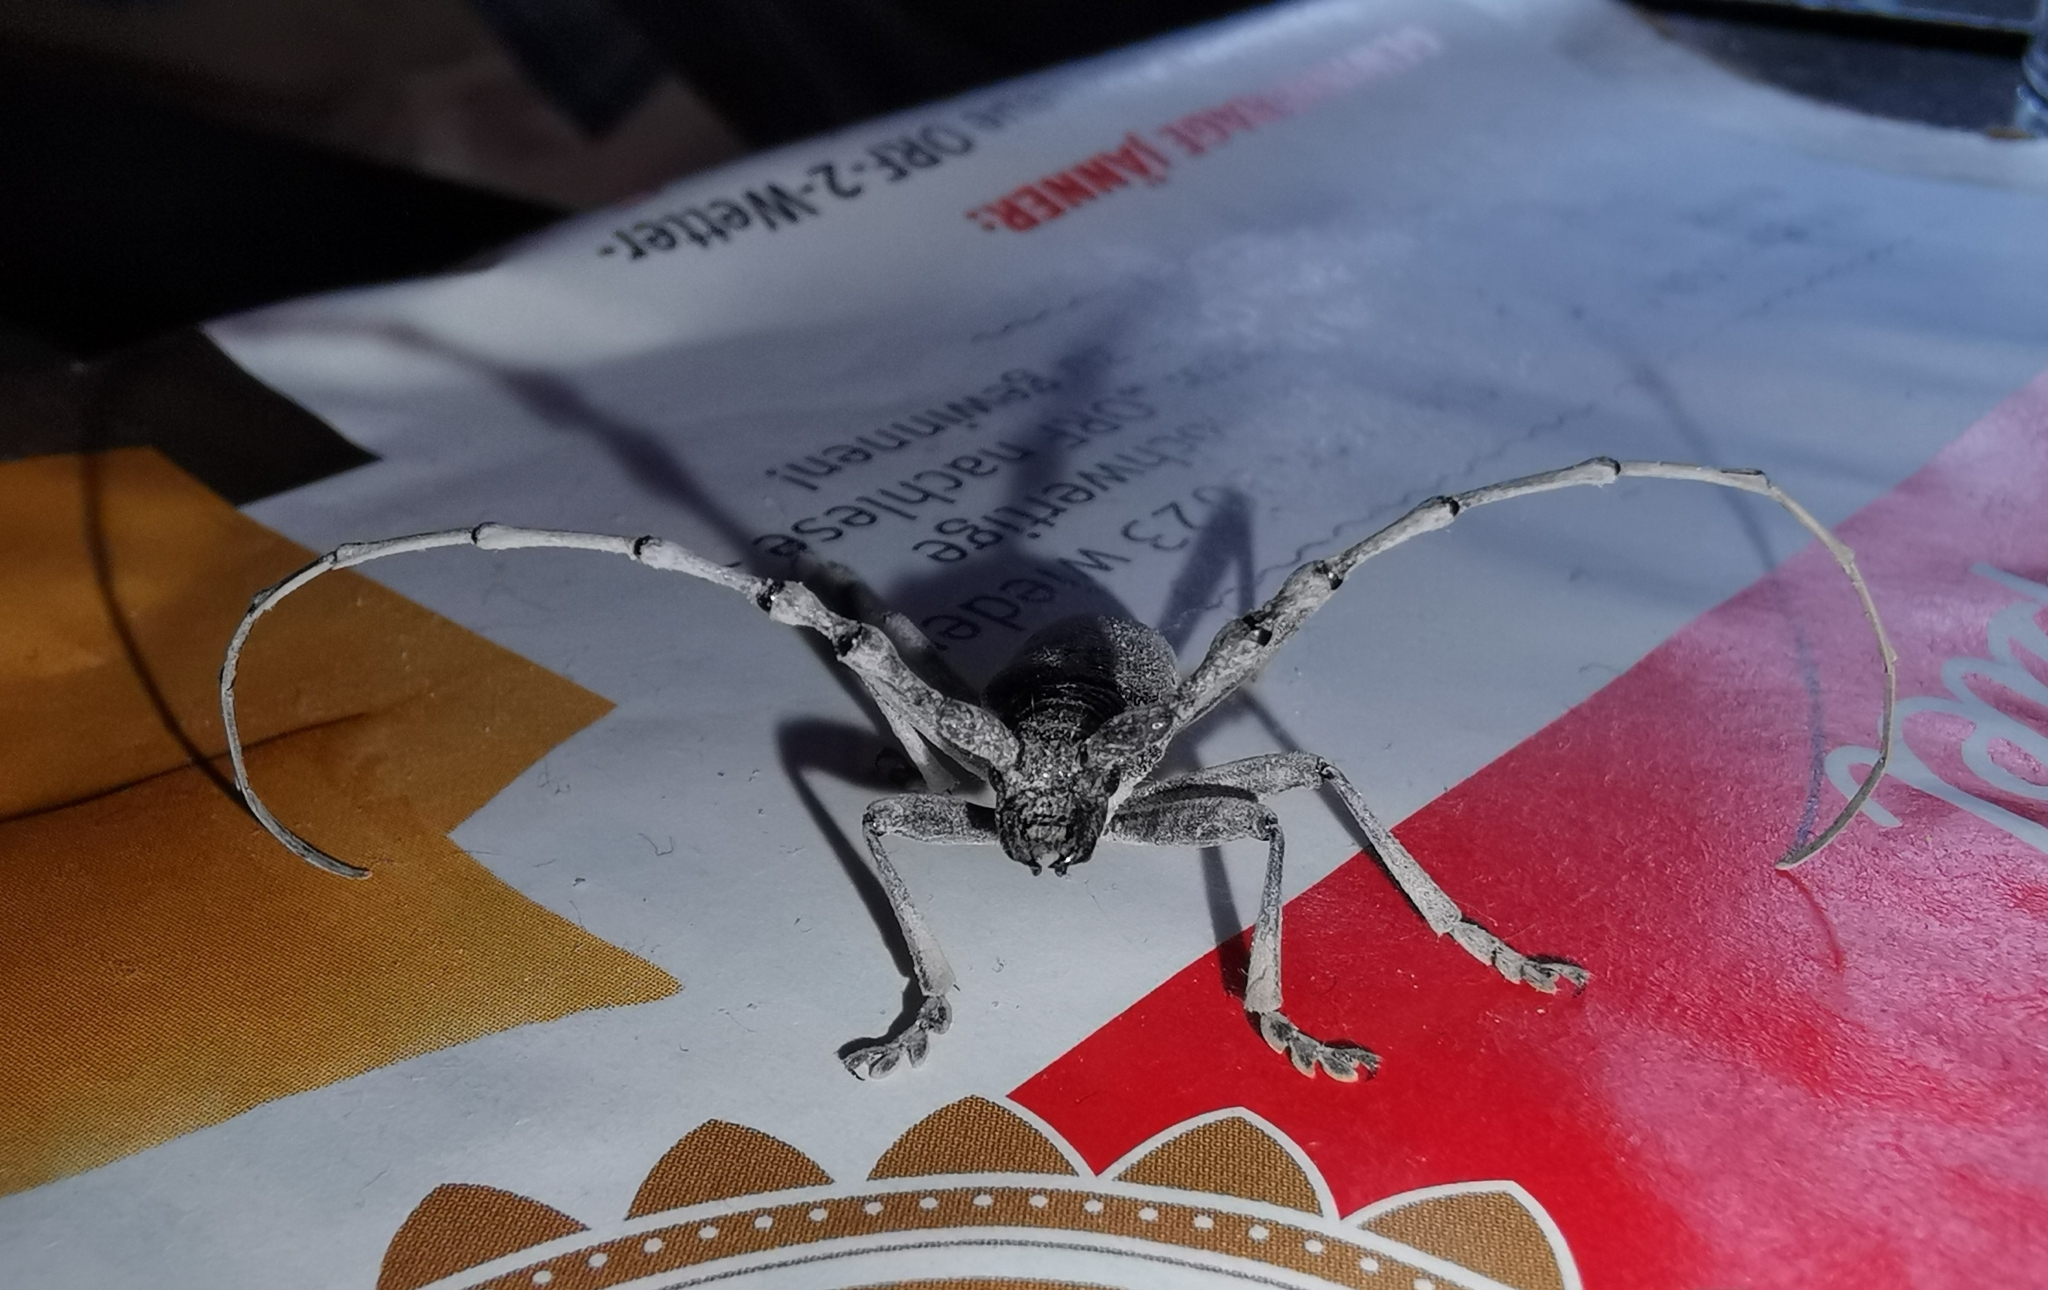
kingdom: Animalia
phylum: Arthropoda
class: Insecta
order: Coleoptera
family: Cerambycidae
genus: Cerambyx
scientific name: Cerambyx scopolii
